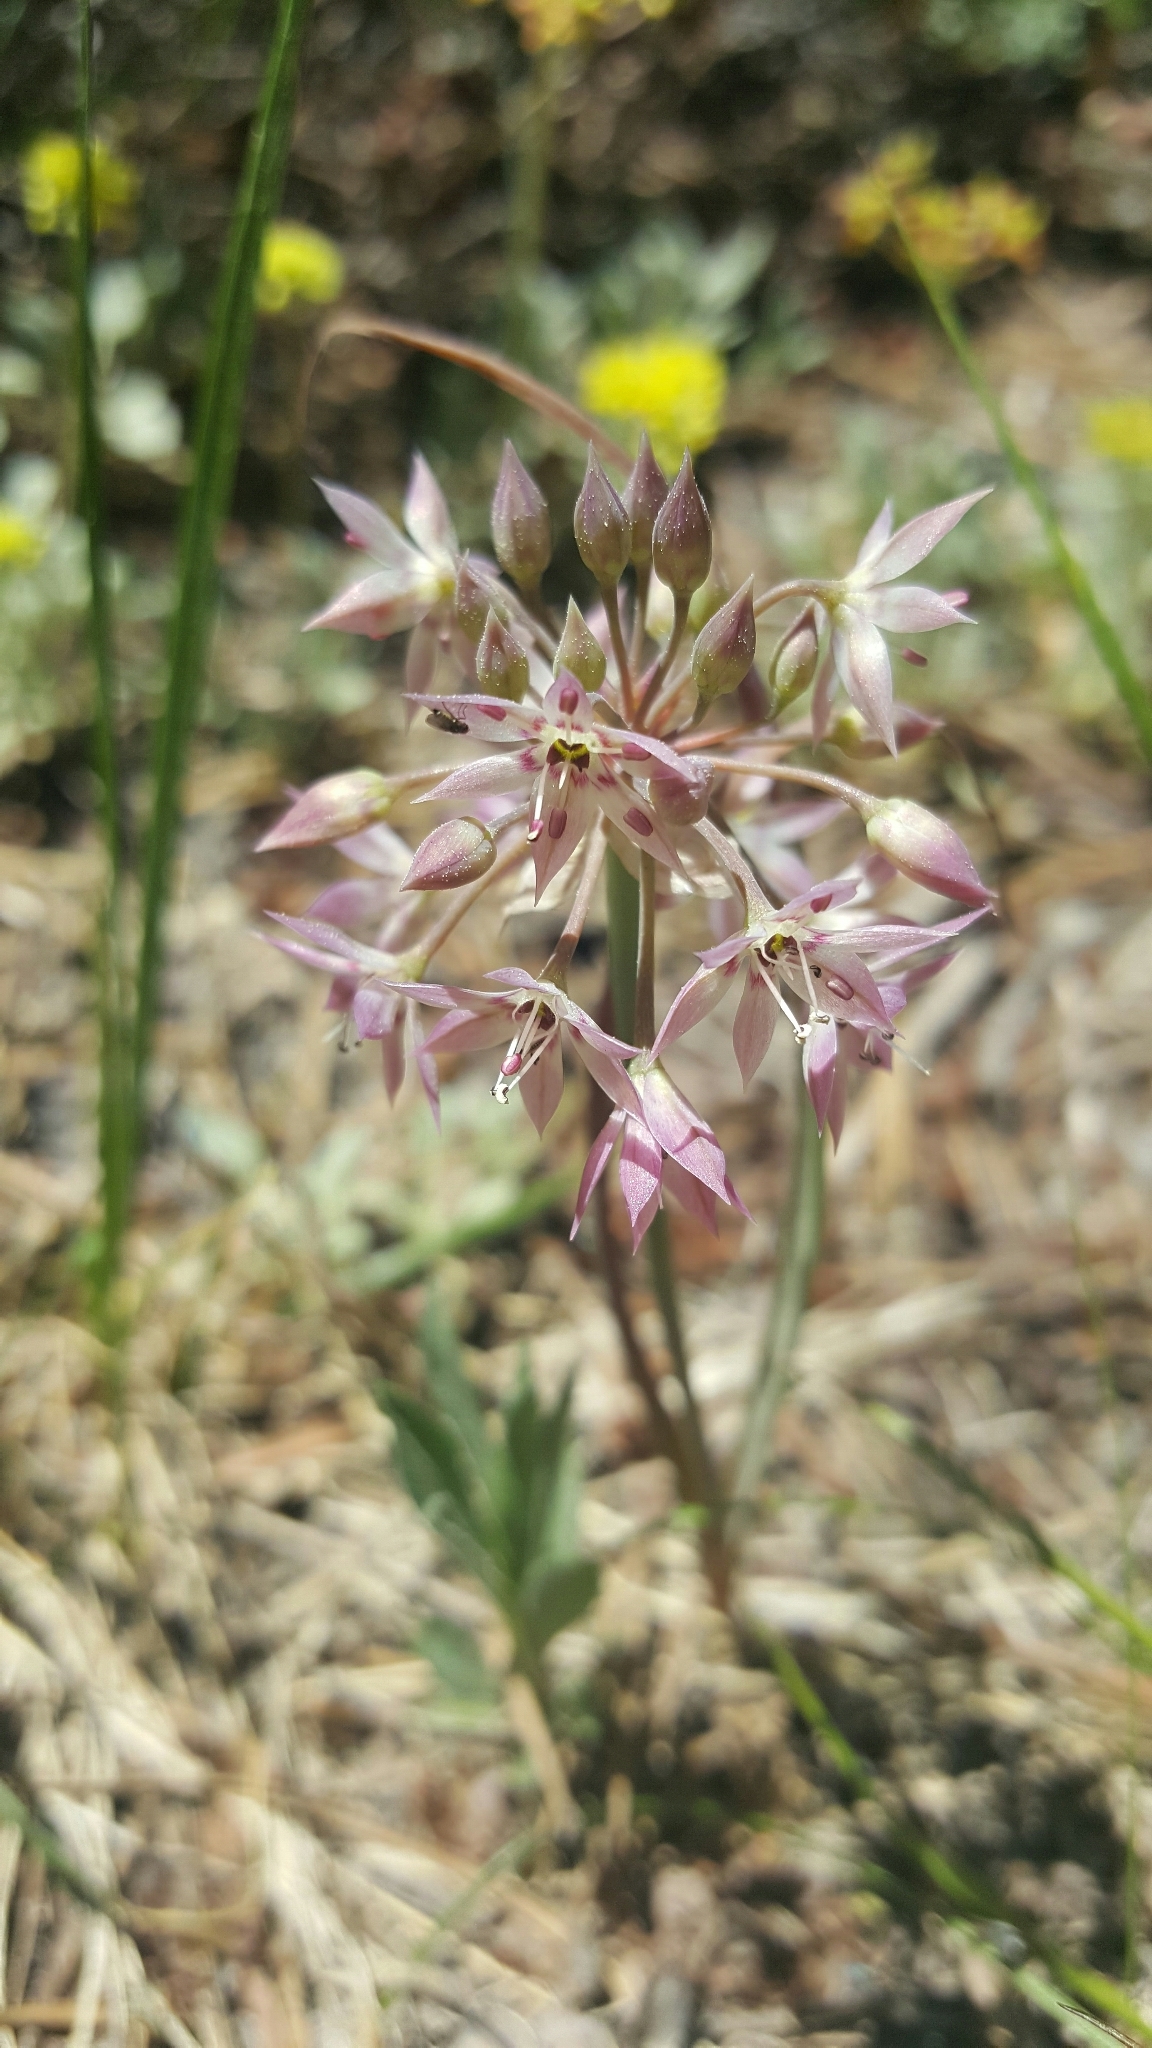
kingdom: Plantae
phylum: Tracheophyta
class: Liliopsida
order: Asparagales
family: Amaryllidaceae
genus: Allium
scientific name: Allium campanulatum
